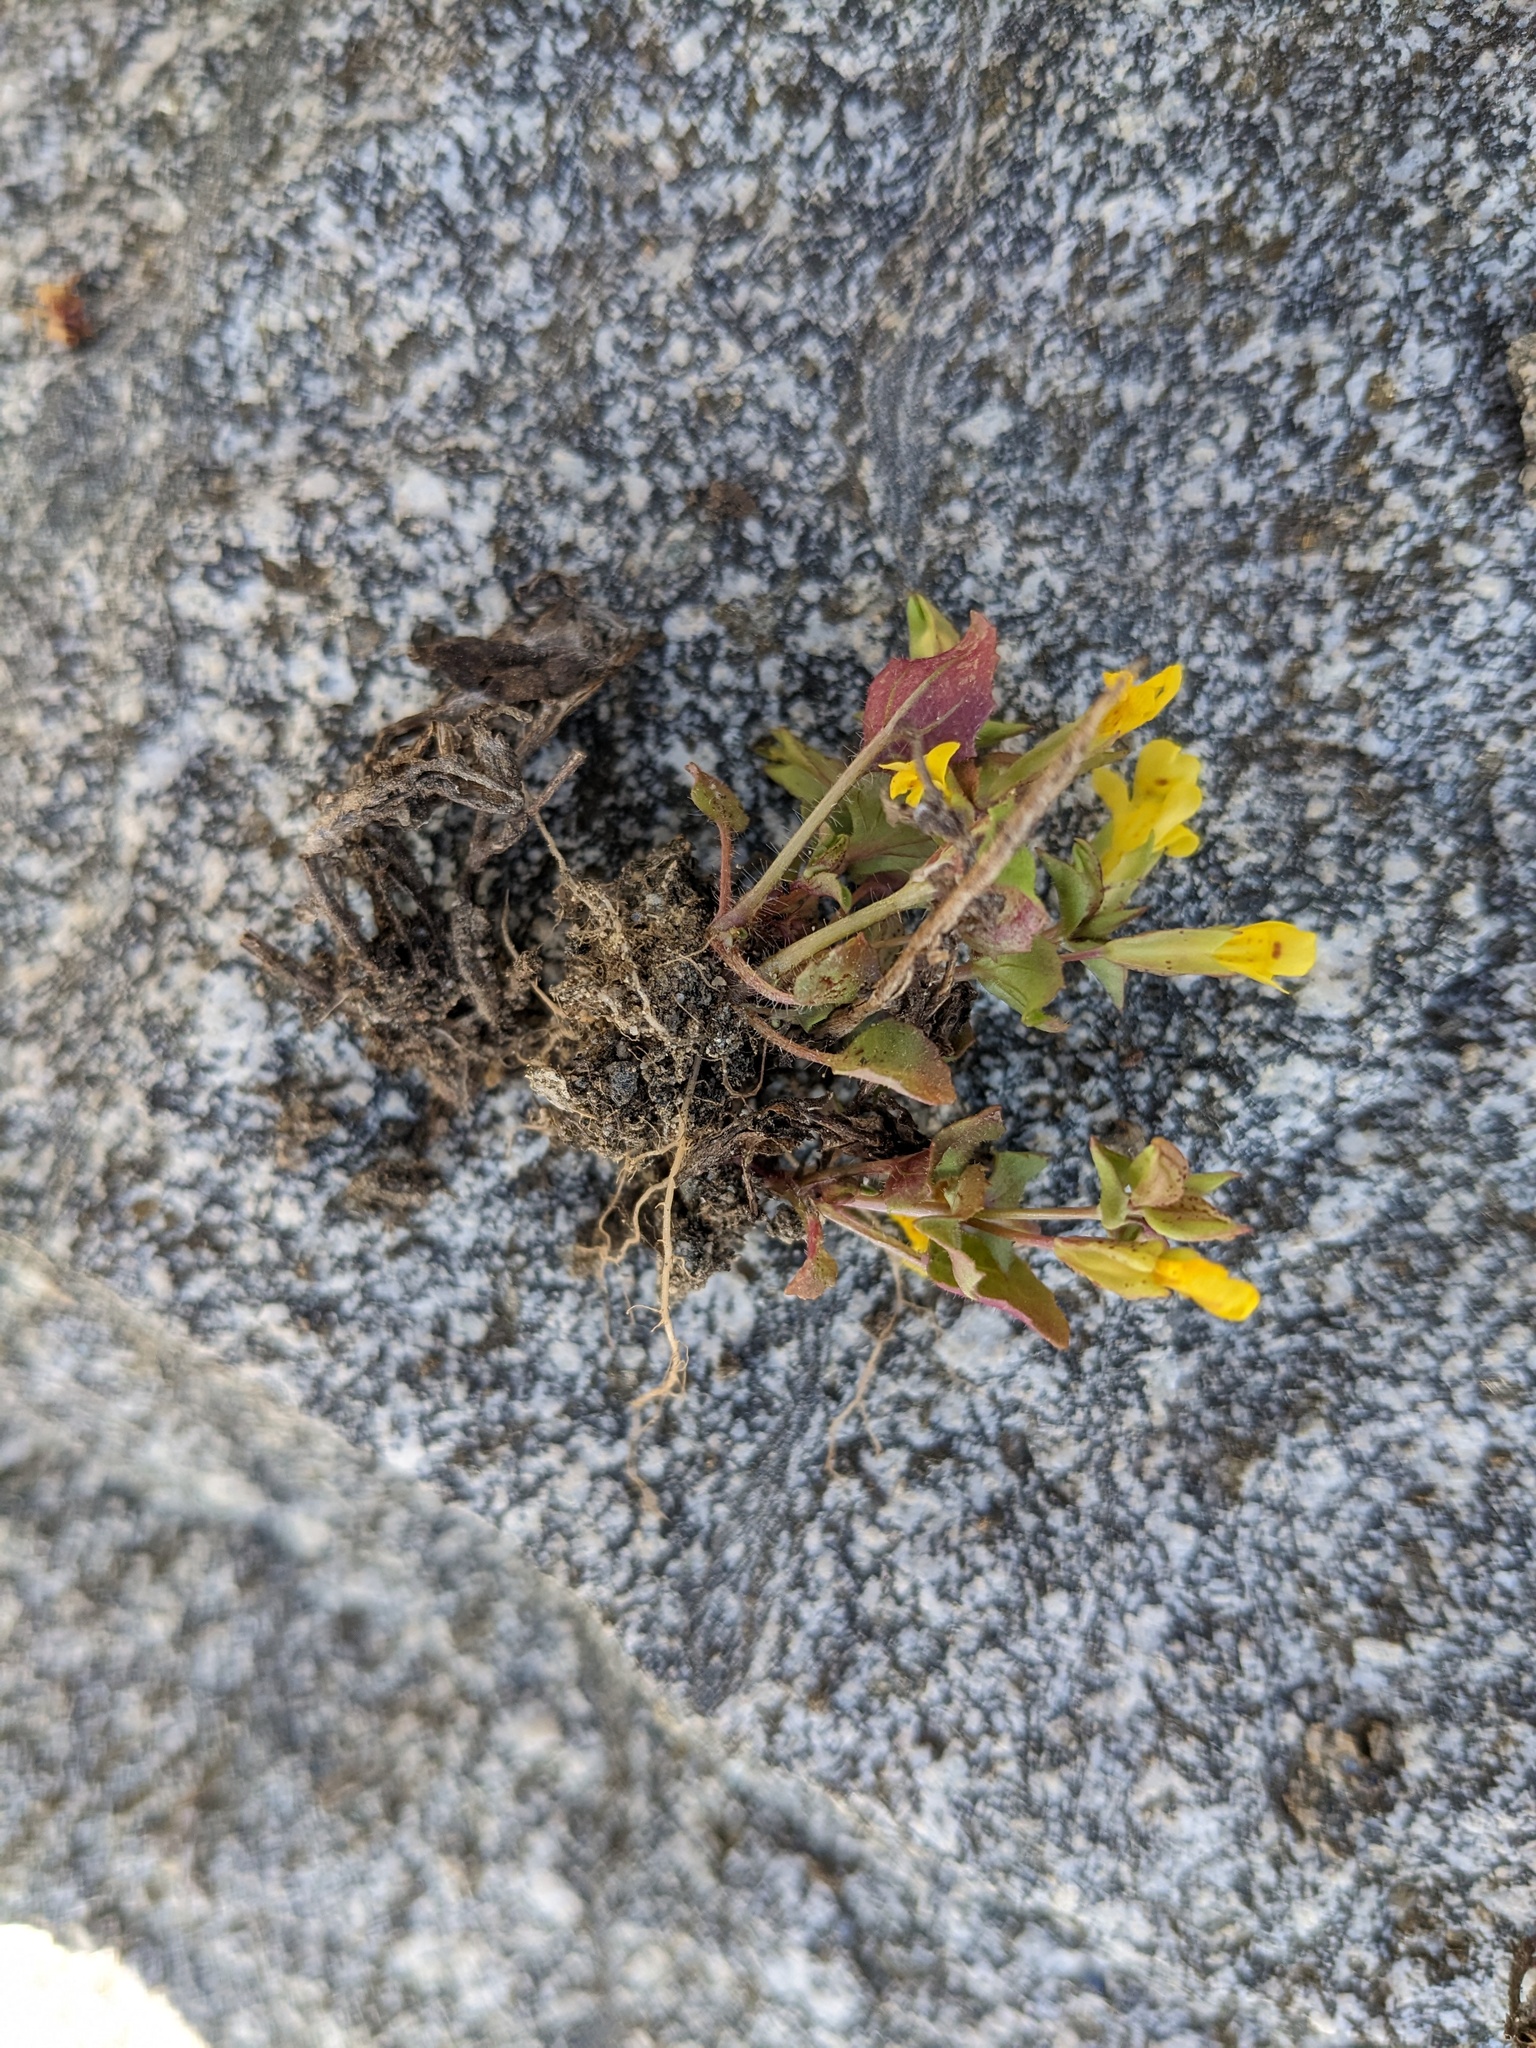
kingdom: Plantae
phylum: Tracheophyta
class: Magnoliopsida
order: Lamiales
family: Phrymaceae
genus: Erythranthe
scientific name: Erythranthe nasuta
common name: Sooke monkeyflower
